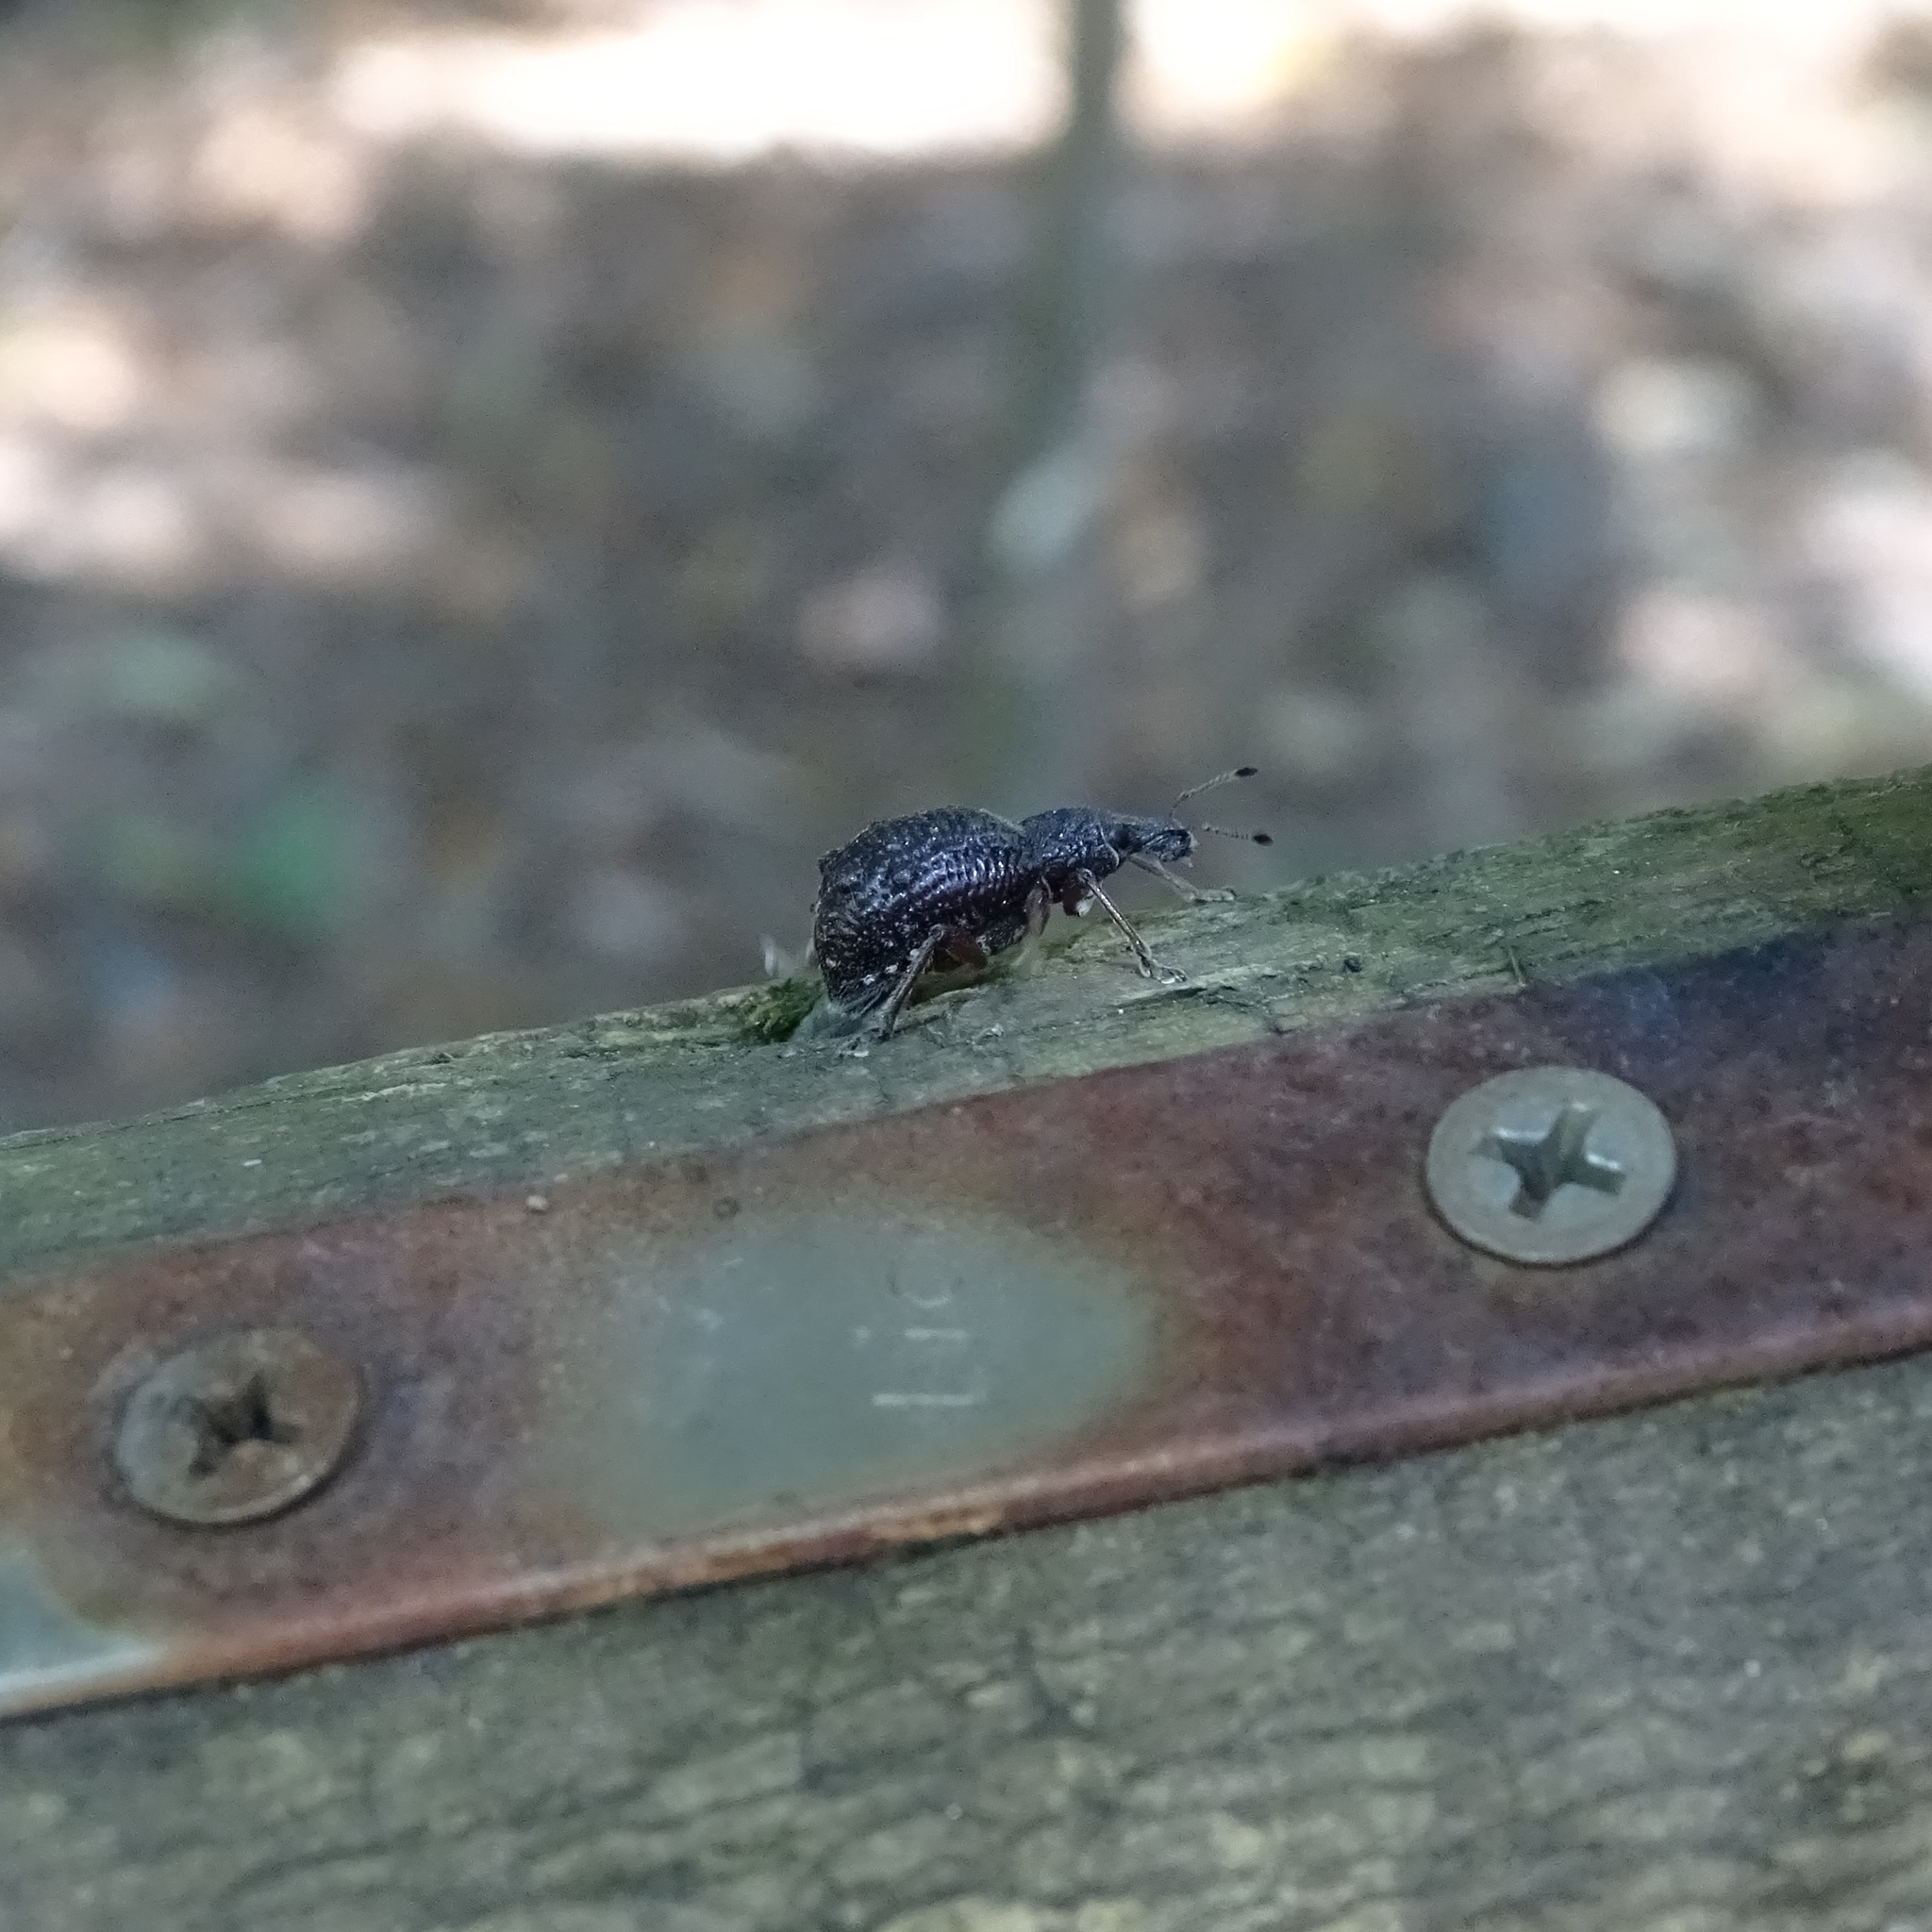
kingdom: Animalia
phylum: Arthropoda
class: Insecta
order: Coleoptera
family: Curculionidae
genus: Megalometides
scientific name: Megalometides discors
